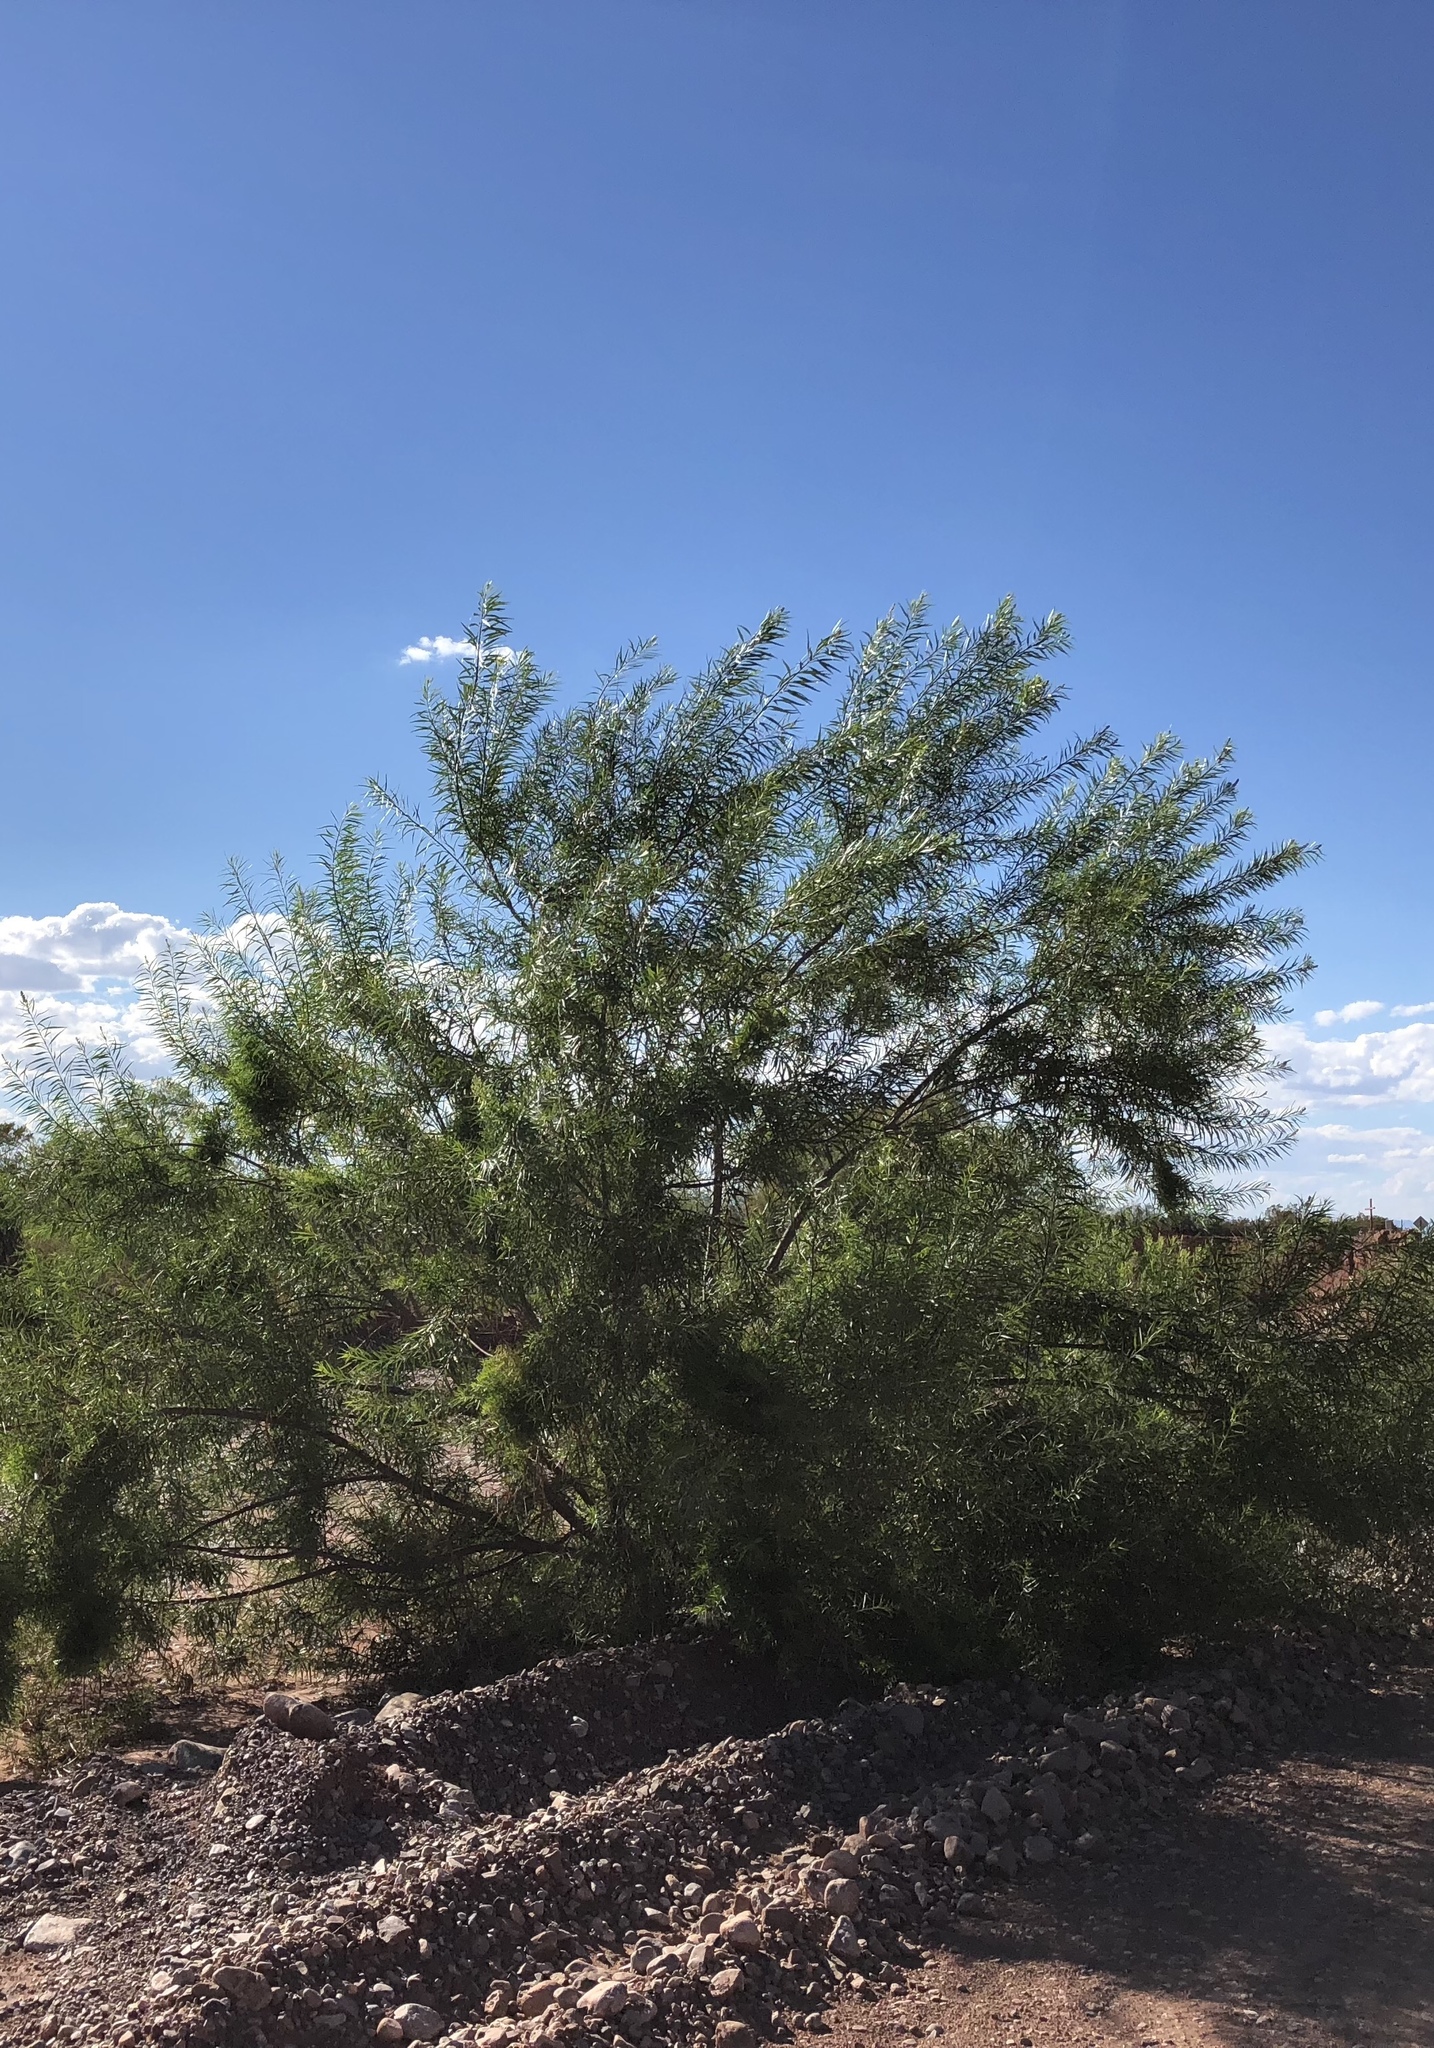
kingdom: Plantae
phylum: Tracheophyta
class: Magnoliopsida
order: Lamiales
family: Bignoniaceae
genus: Chilopsis
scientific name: Chilopsis linearis
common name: Desert-willow
